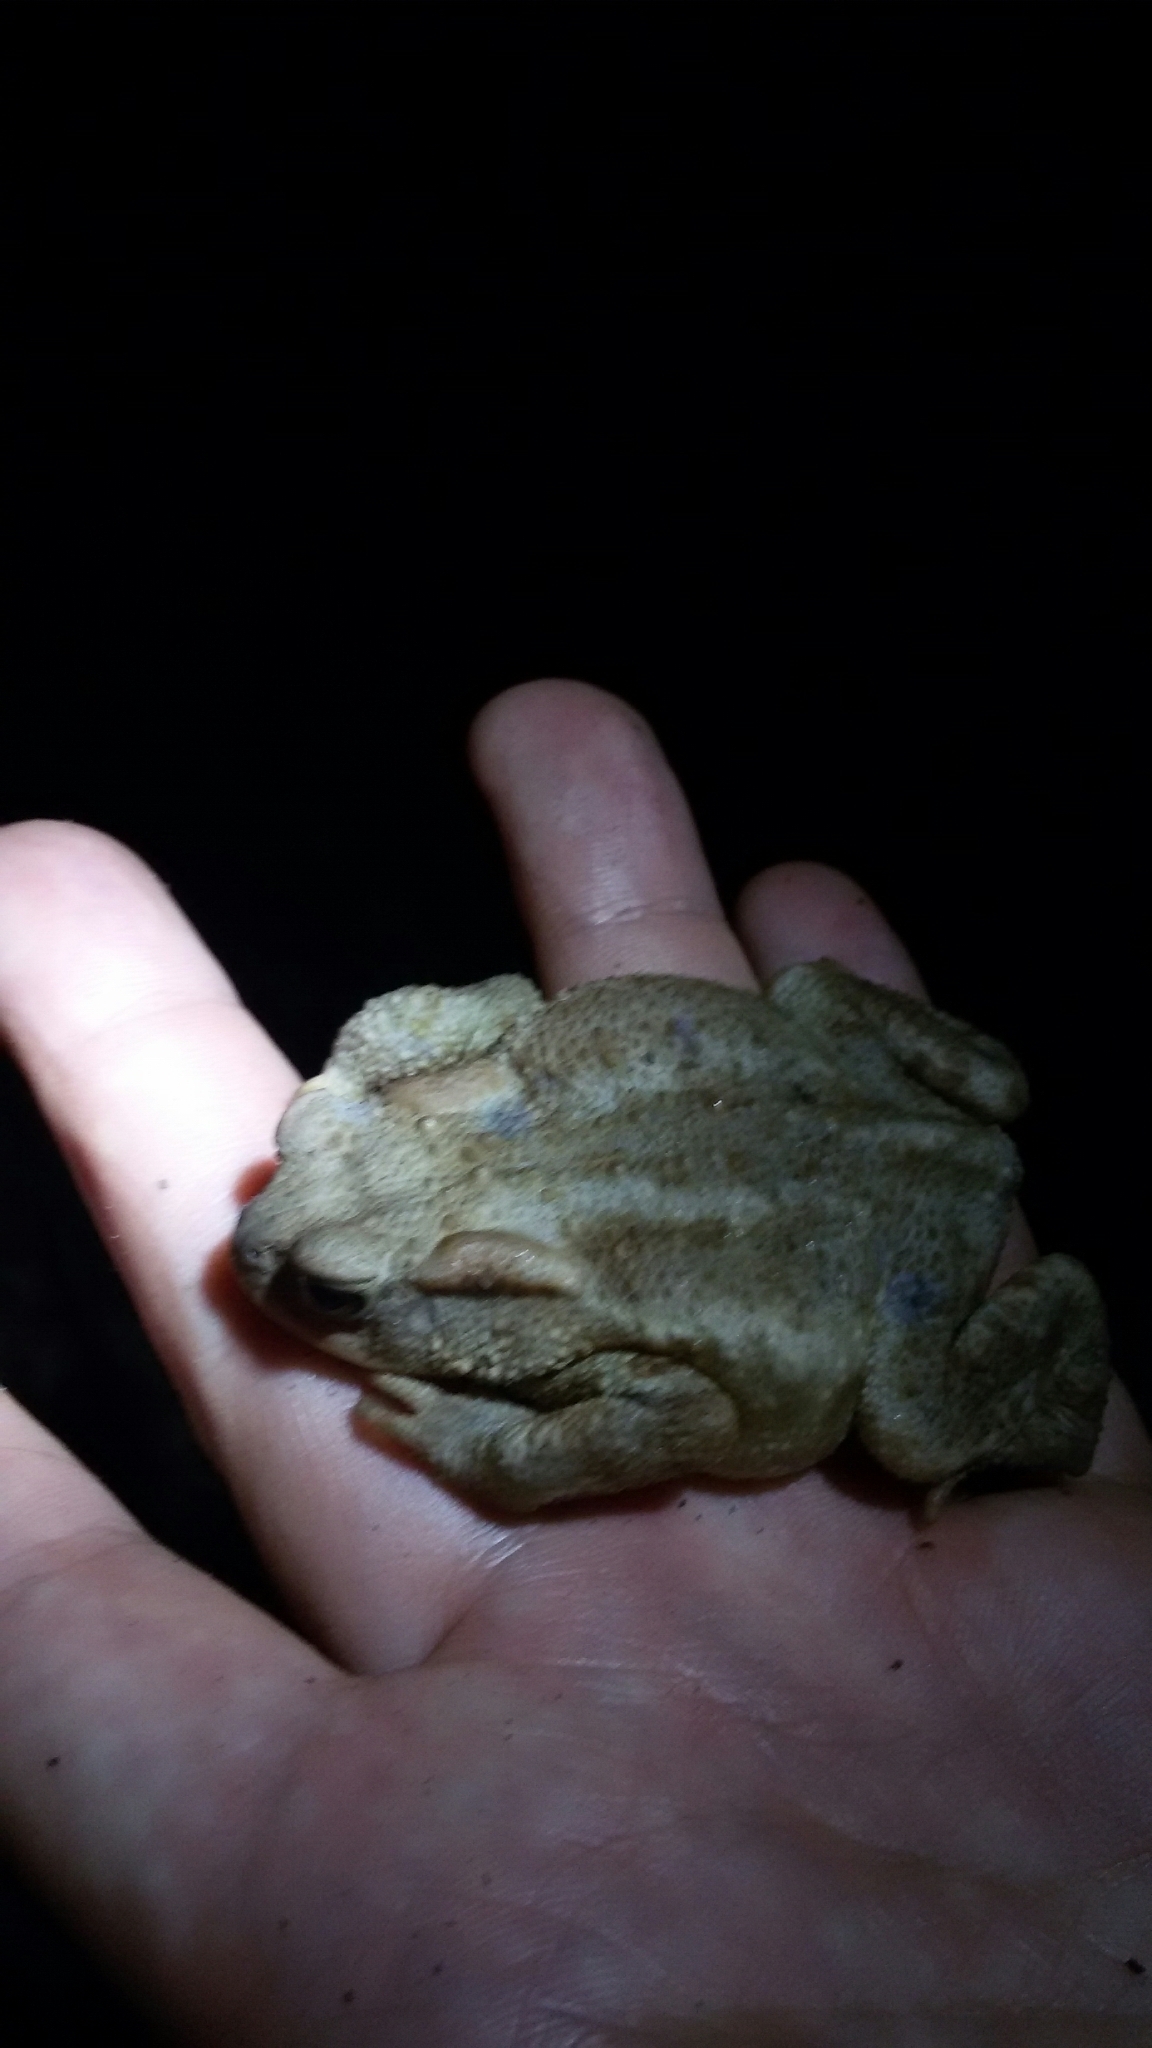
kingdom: Animalia
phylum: Chordata
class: Amphibia
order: Anura
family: Bufonidae
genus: Bufo
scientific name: Bufo bufo
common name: Common toad
